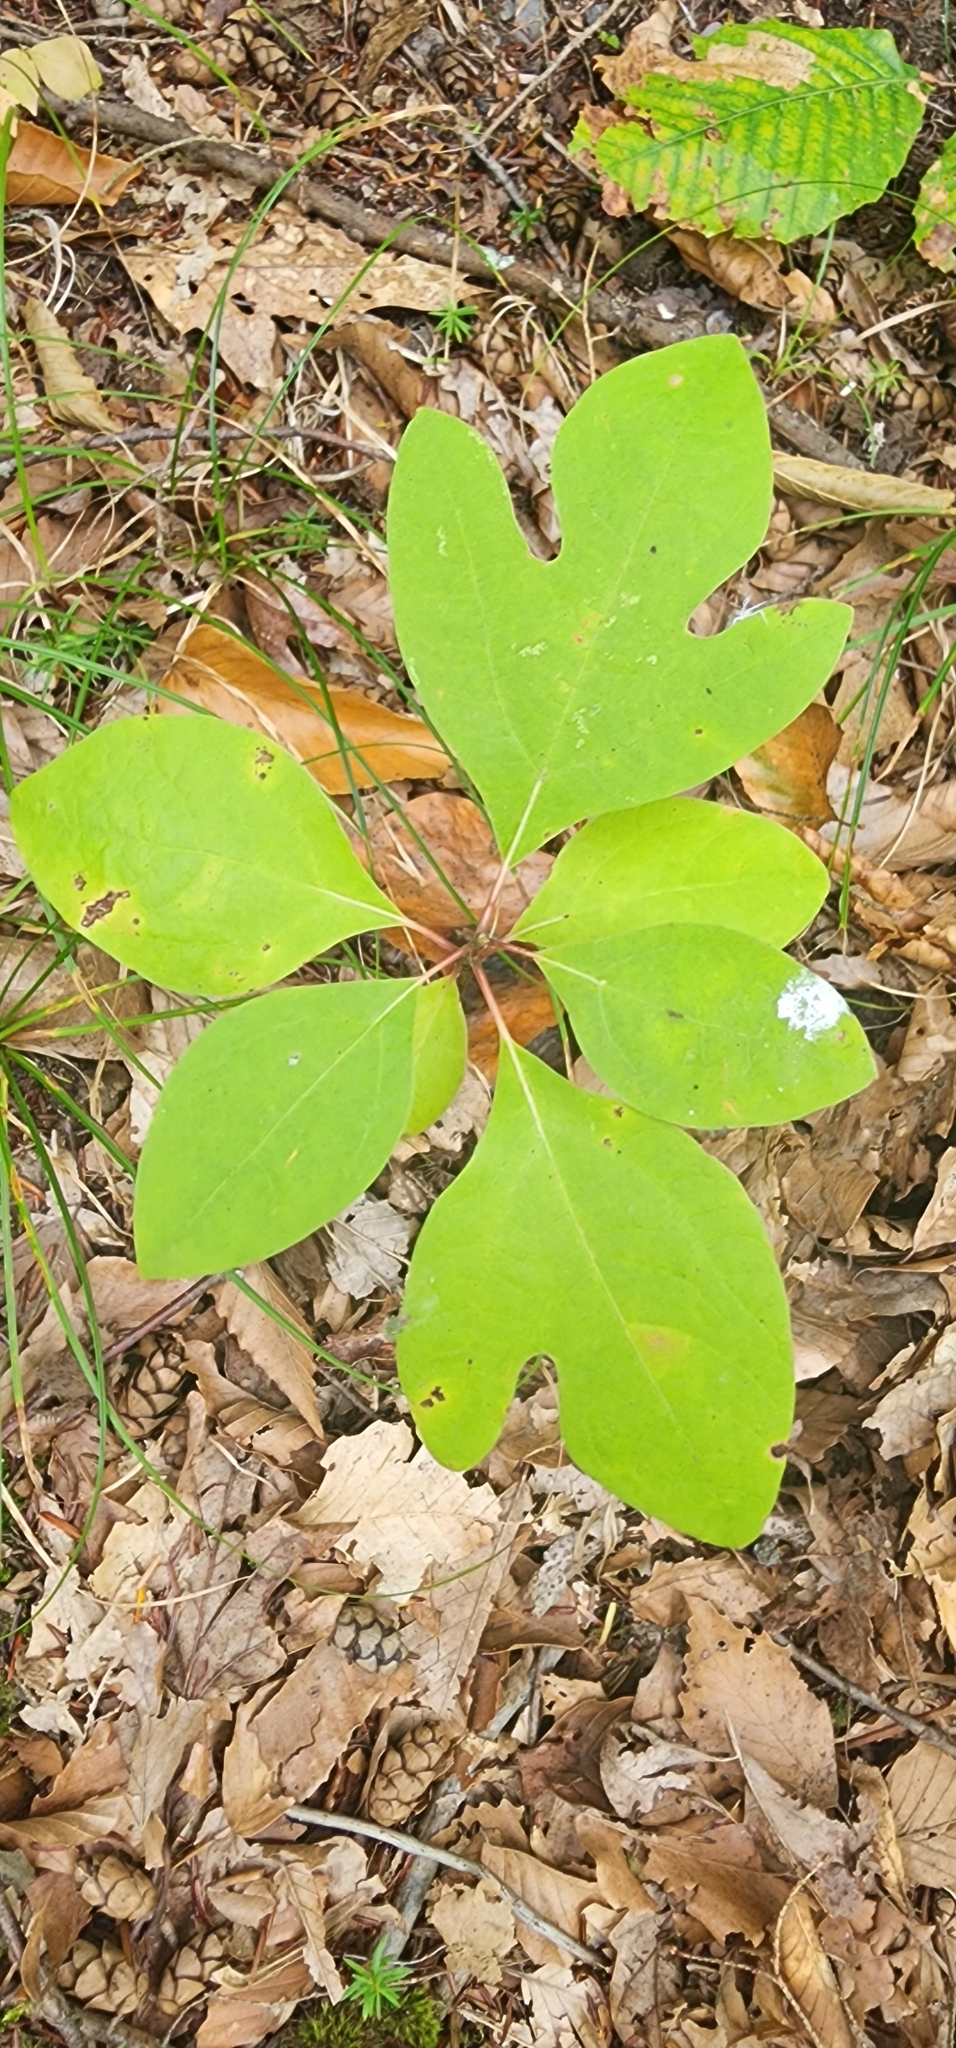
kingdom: Plantae
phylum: Tracheophyta
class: Magnoliopsida
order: Laurales
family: Lauraceae
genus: Sassafras
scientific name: Sassafras albidum
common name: Sassafras
